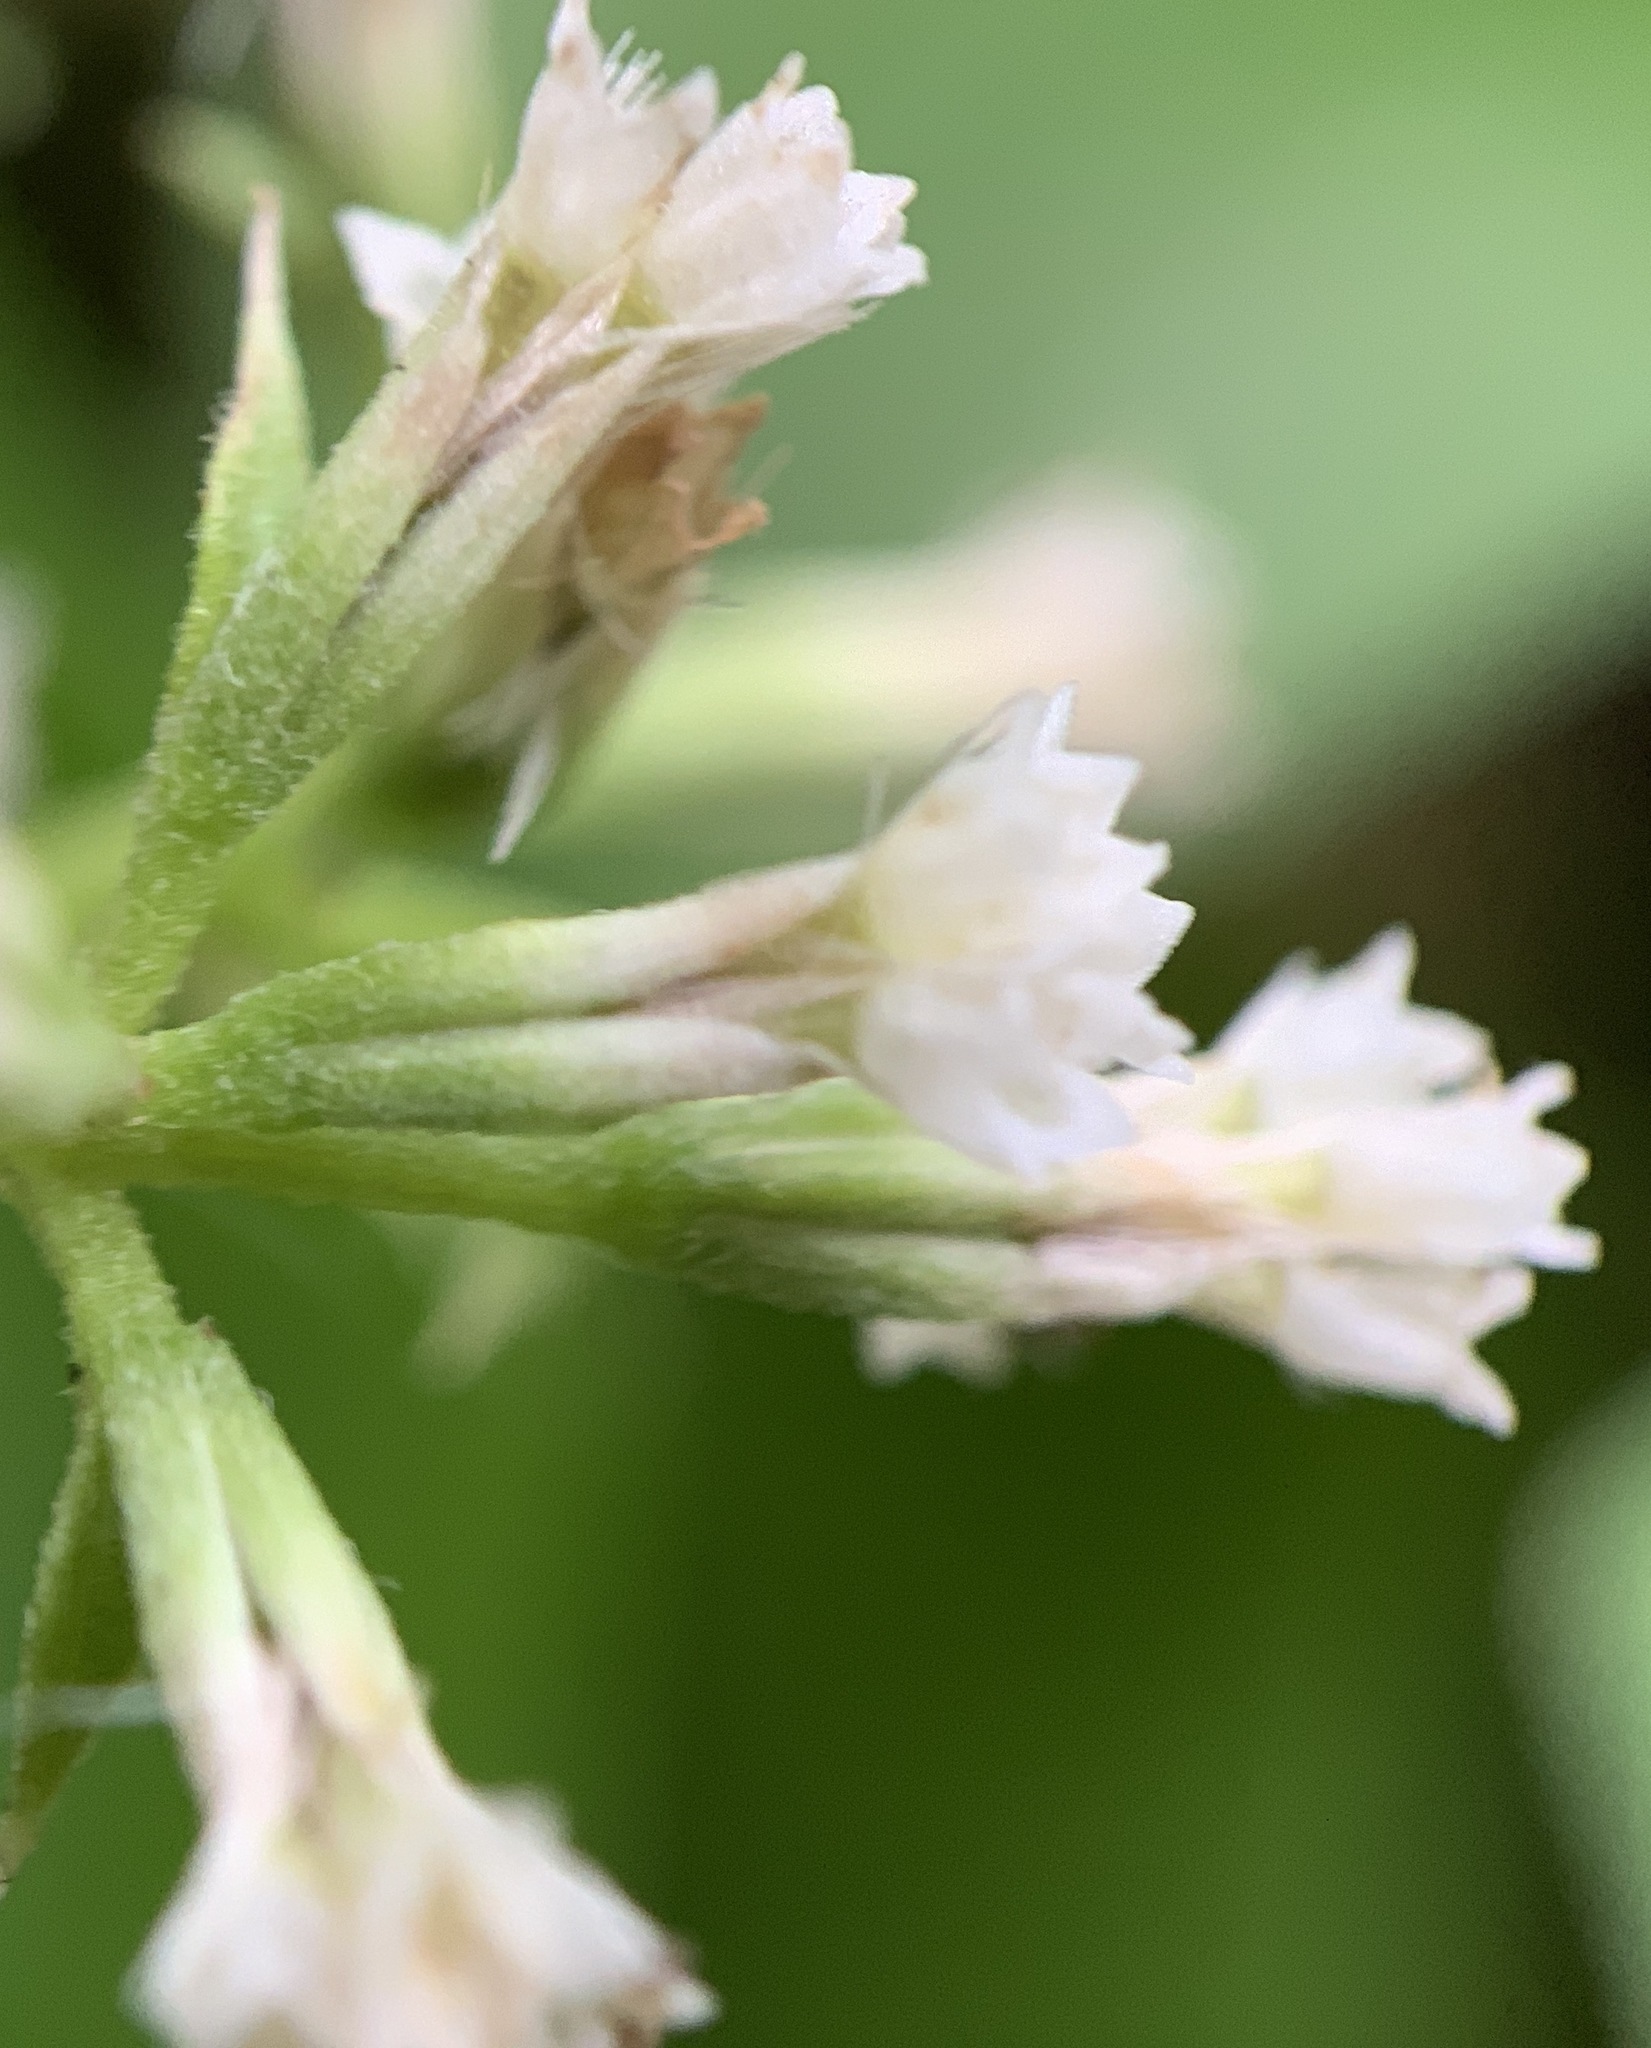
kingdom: Plantae
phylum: Tracheophyta
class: Magnoliopsida
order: Asterales
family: Asteraceae
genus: Mikania
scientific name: Mikania scandens
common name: Climbing hempvine
